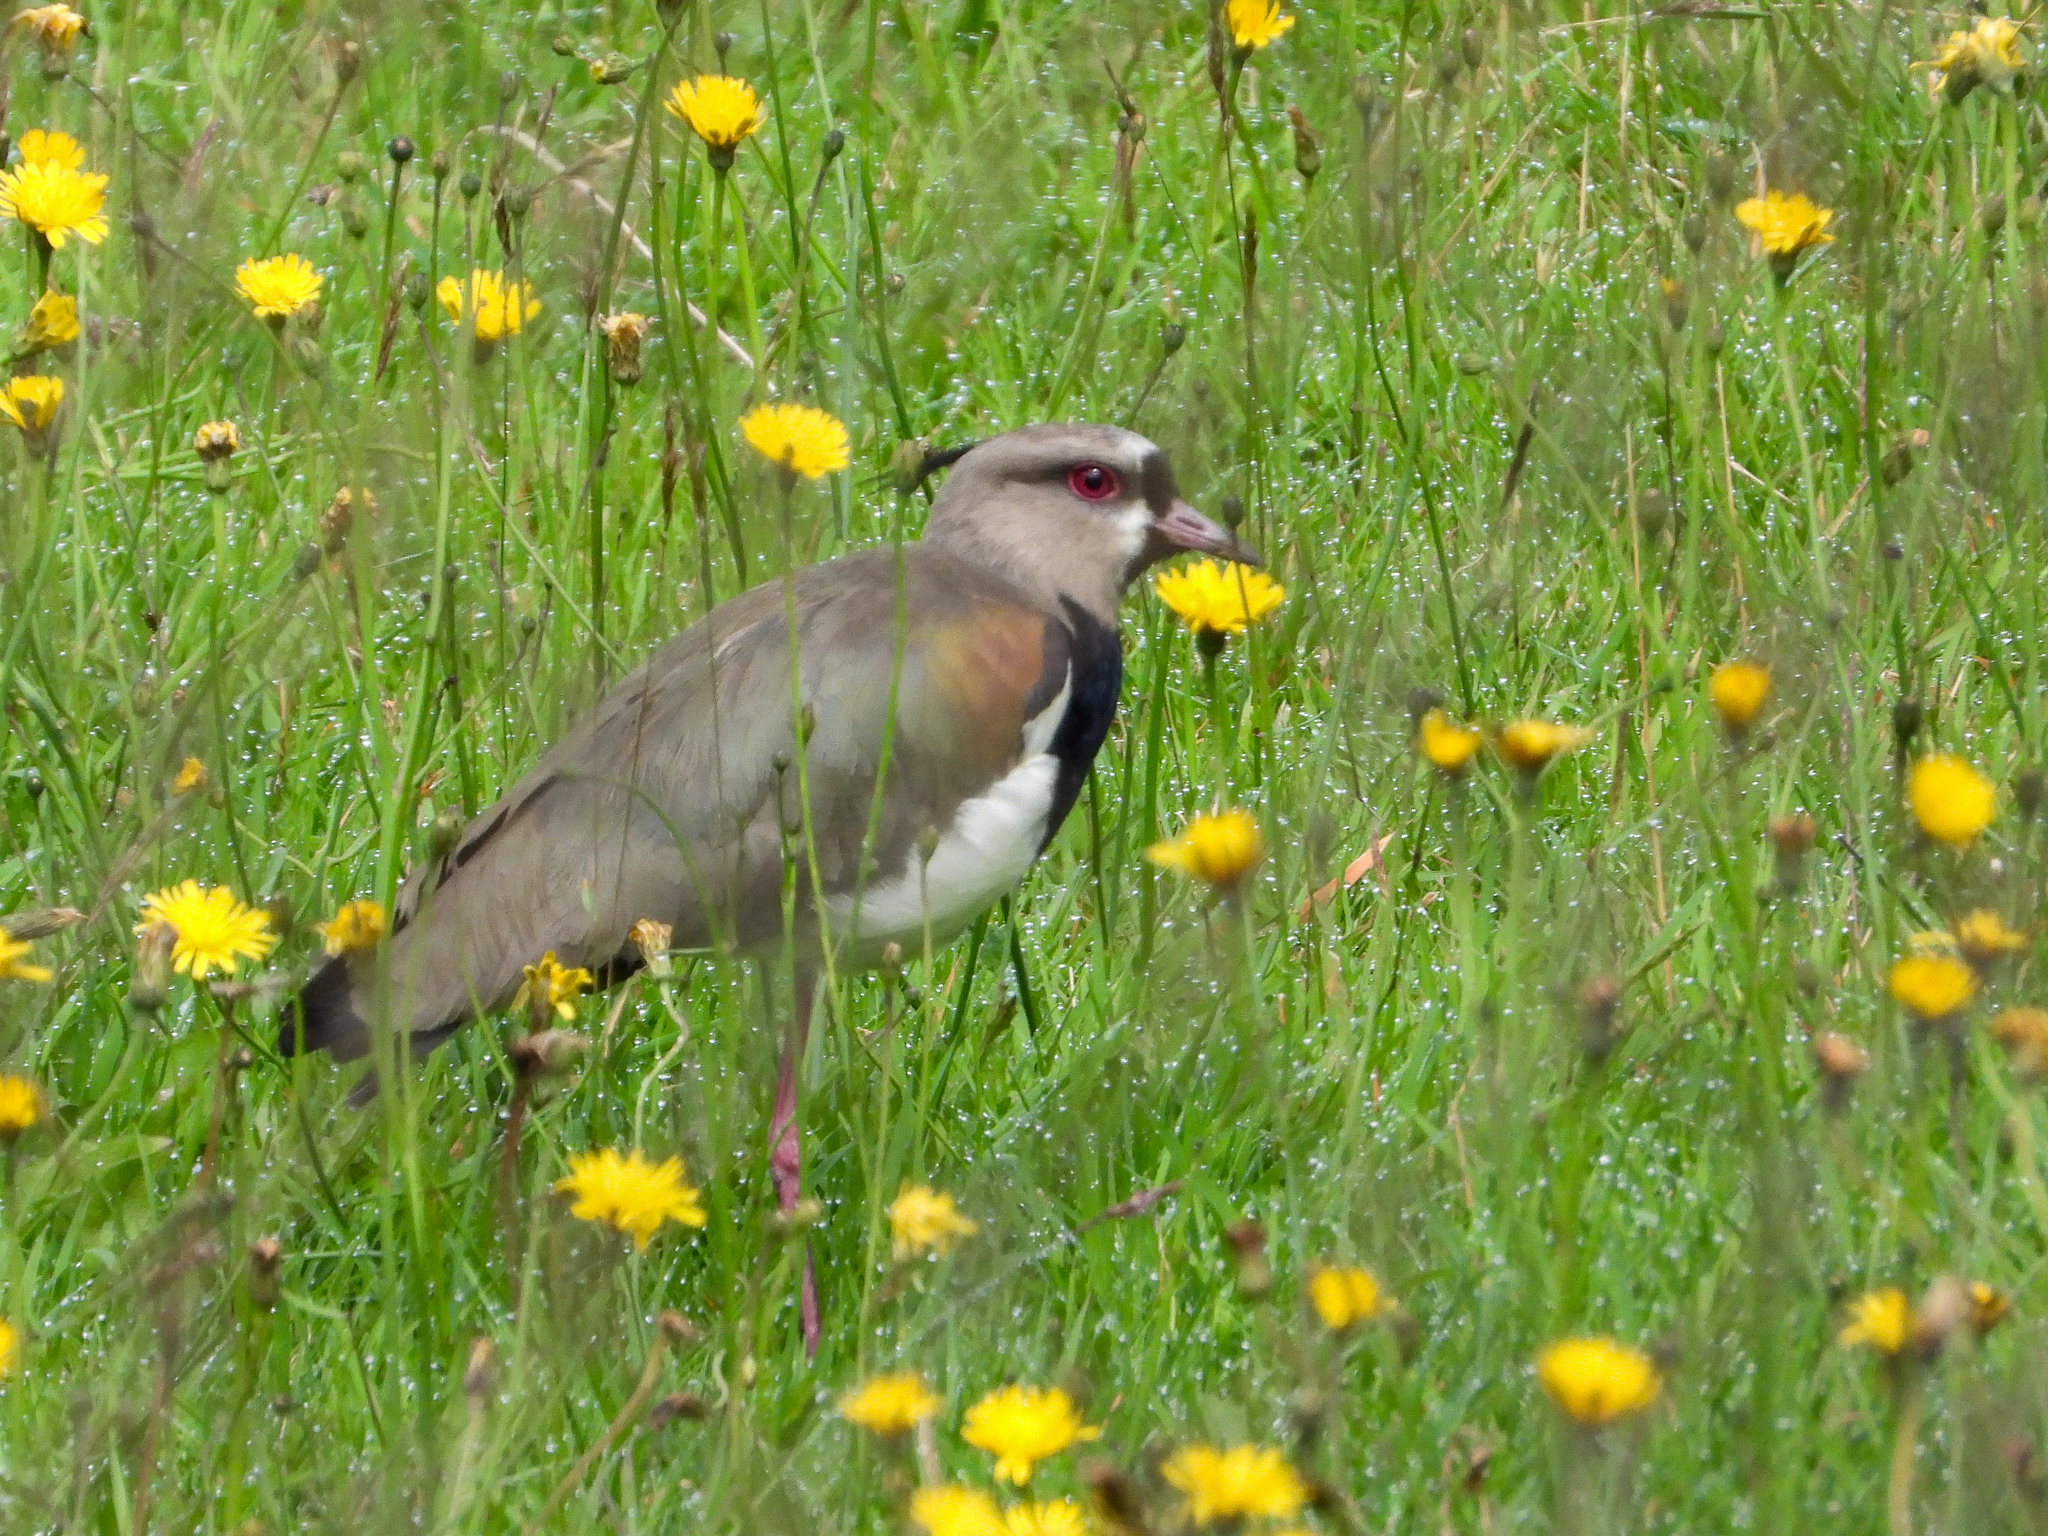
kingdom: Animalia
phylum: Chordata
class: Aves
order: Charadriiformes
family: Charadriidae
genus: Vanellus
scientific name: Vanellus chilensis
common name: Southern lapwing
